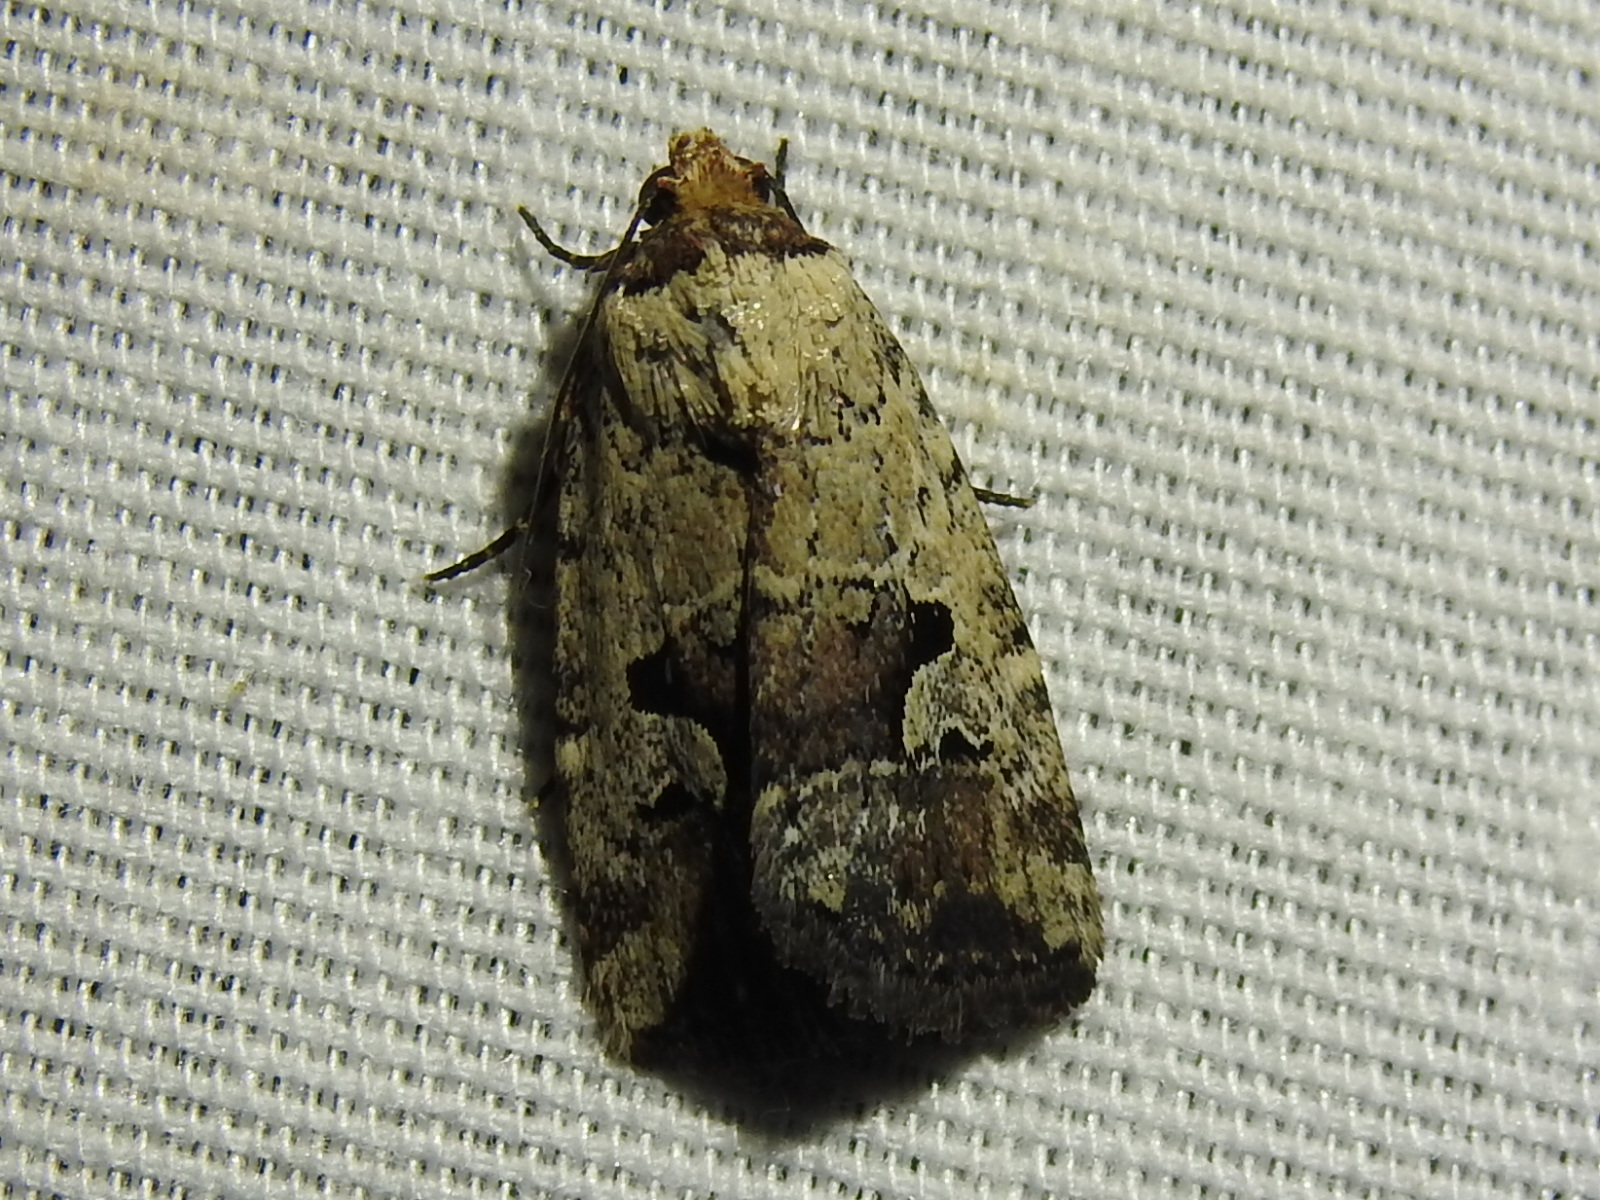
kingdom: Animalia
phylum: Arthropoda
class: Insecta
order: Lepidoptera
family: Noctuidae
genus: Elaphria
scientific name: Elaphria festivoides
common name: Festive midget
